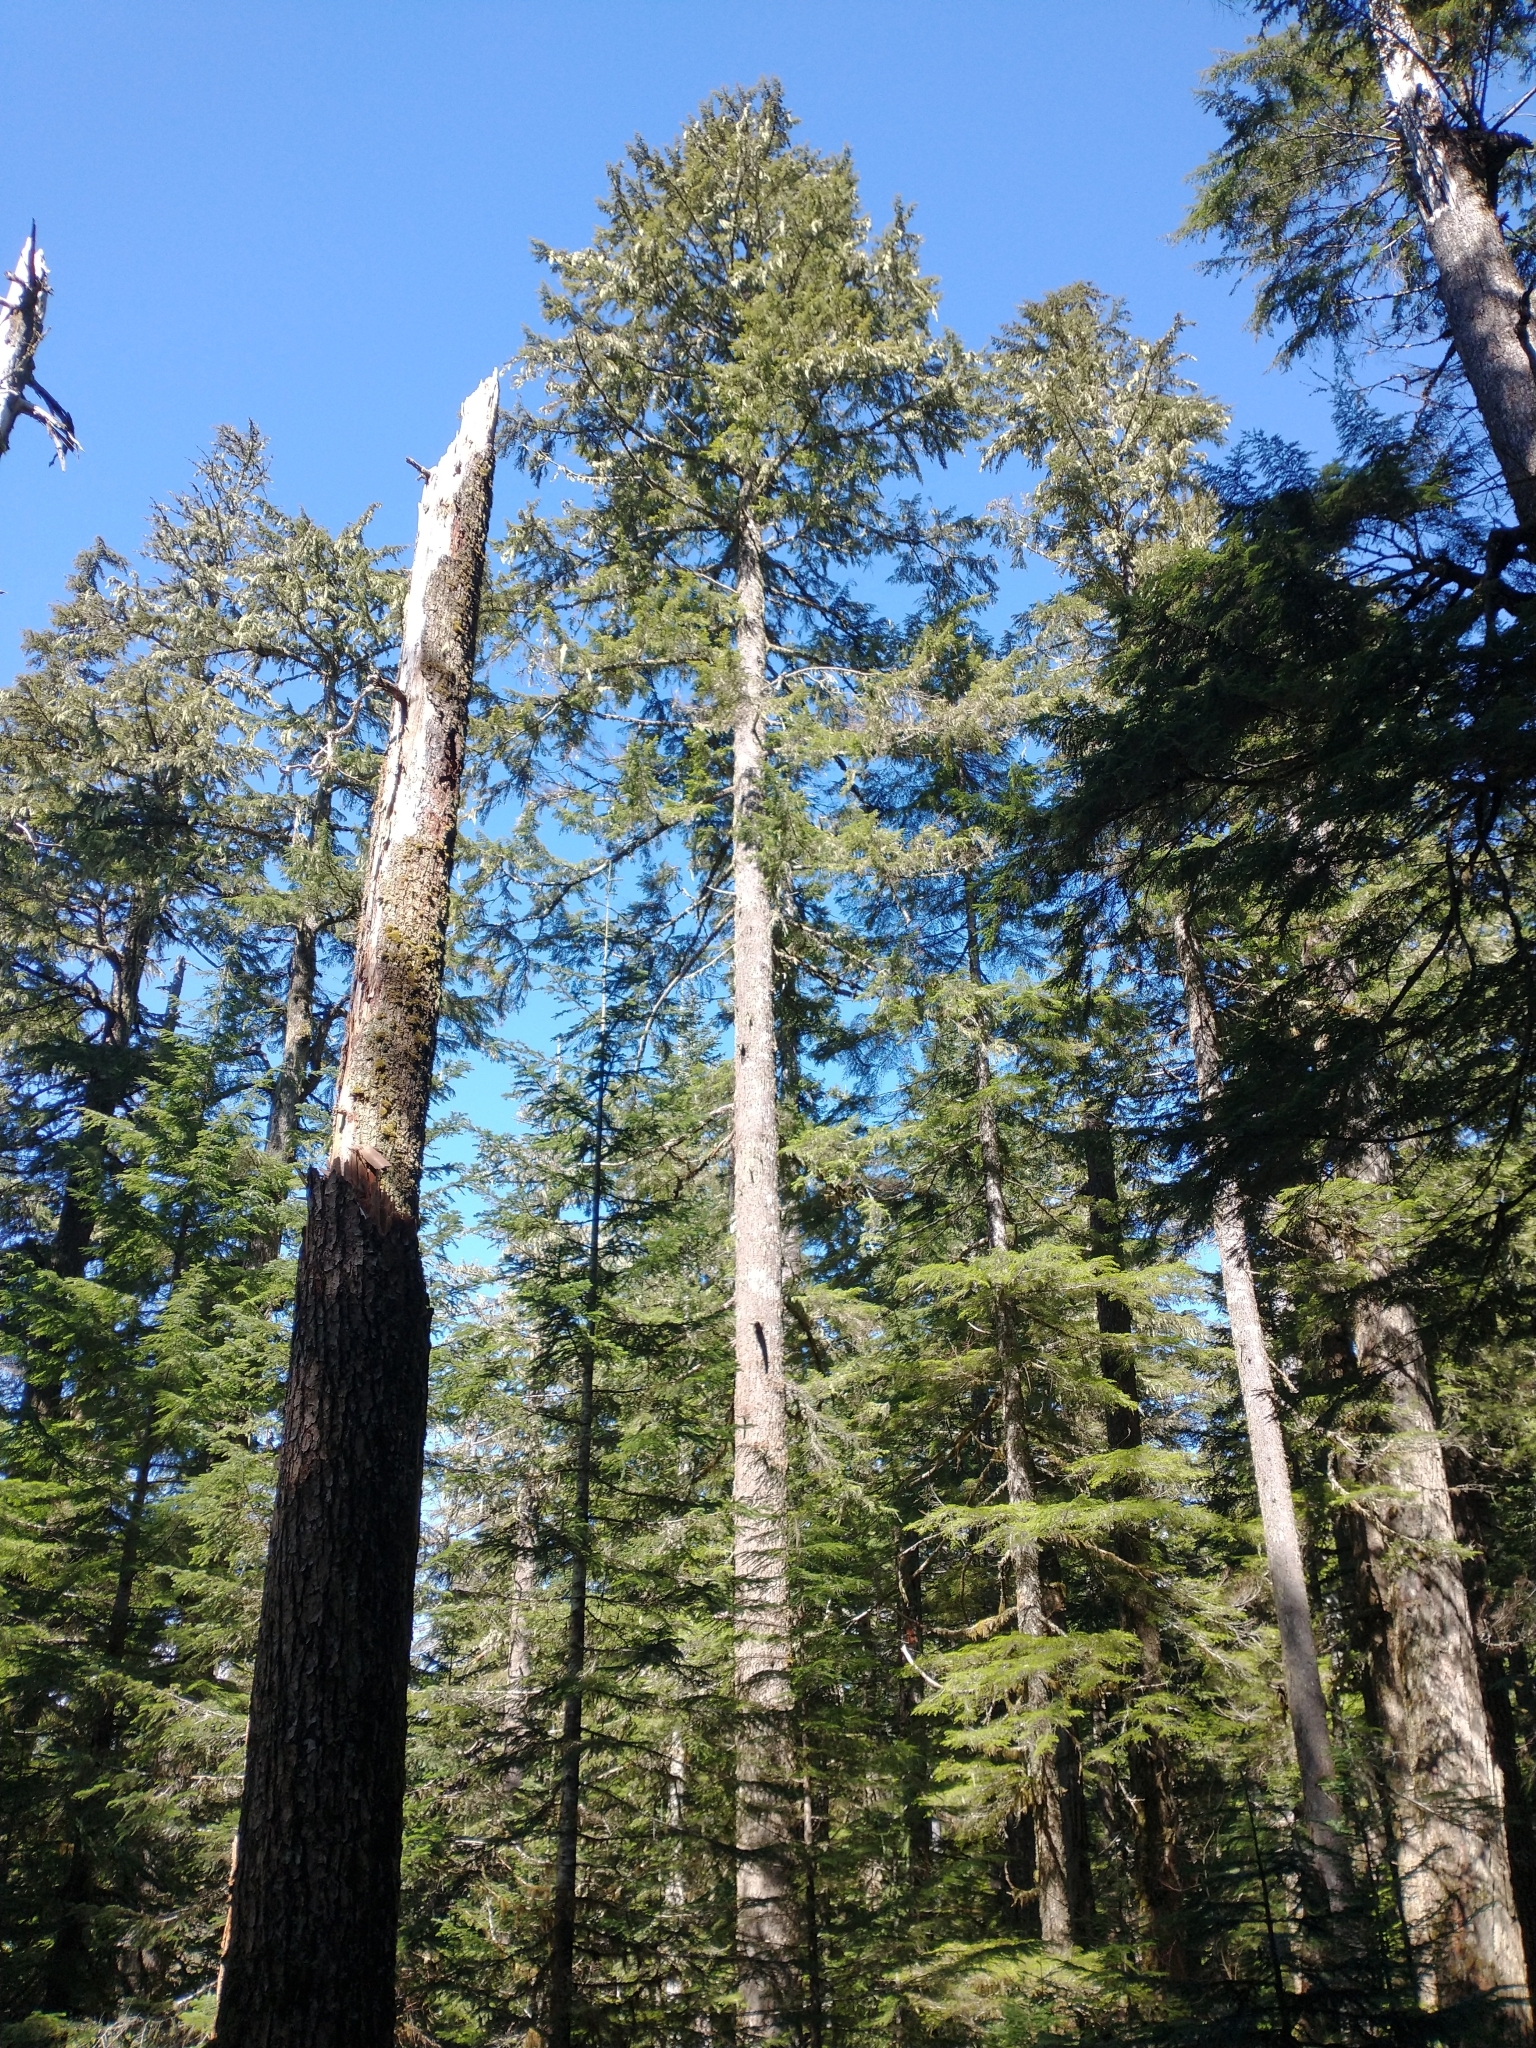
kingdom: Plantae
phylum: Tracheophyta
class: Pinopsida
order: Pinales
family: Pinaceae
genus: Tsuga
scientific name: Tsuga heterophylla
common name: Western hemlock
